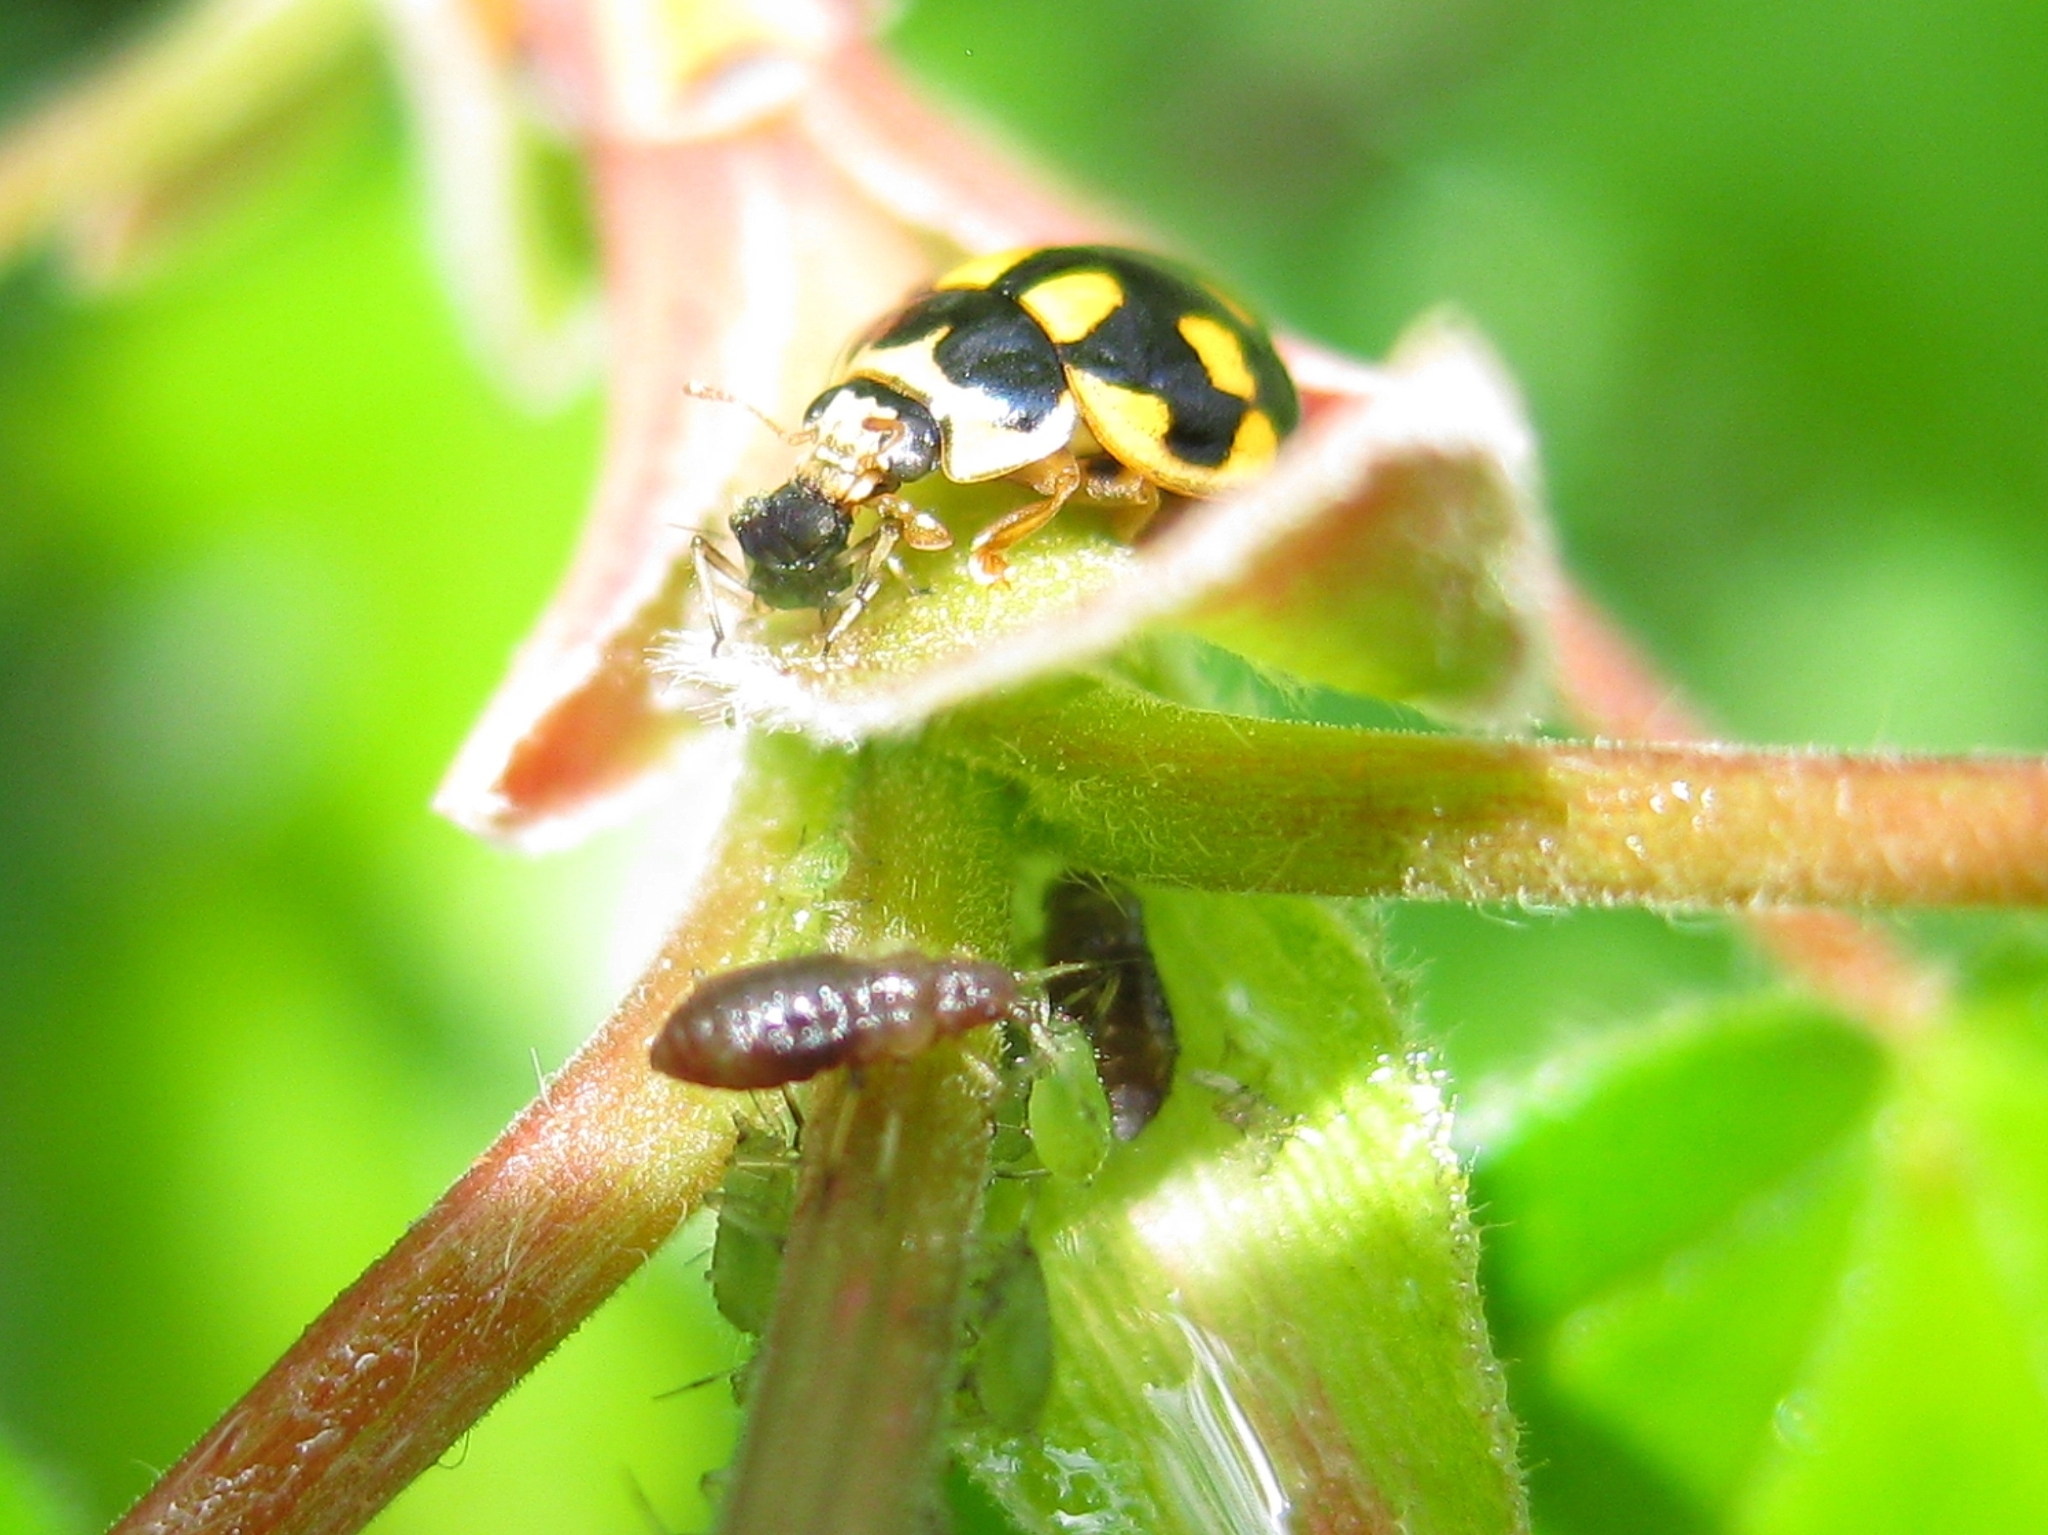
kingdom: Animalia
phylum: Arthropoda
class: Insecta
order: Coleoptera
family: Coccinellidae
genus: Propylaea
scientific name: Propylaea quatuordecimpunctata
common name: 14-spotted ladybird beetle
